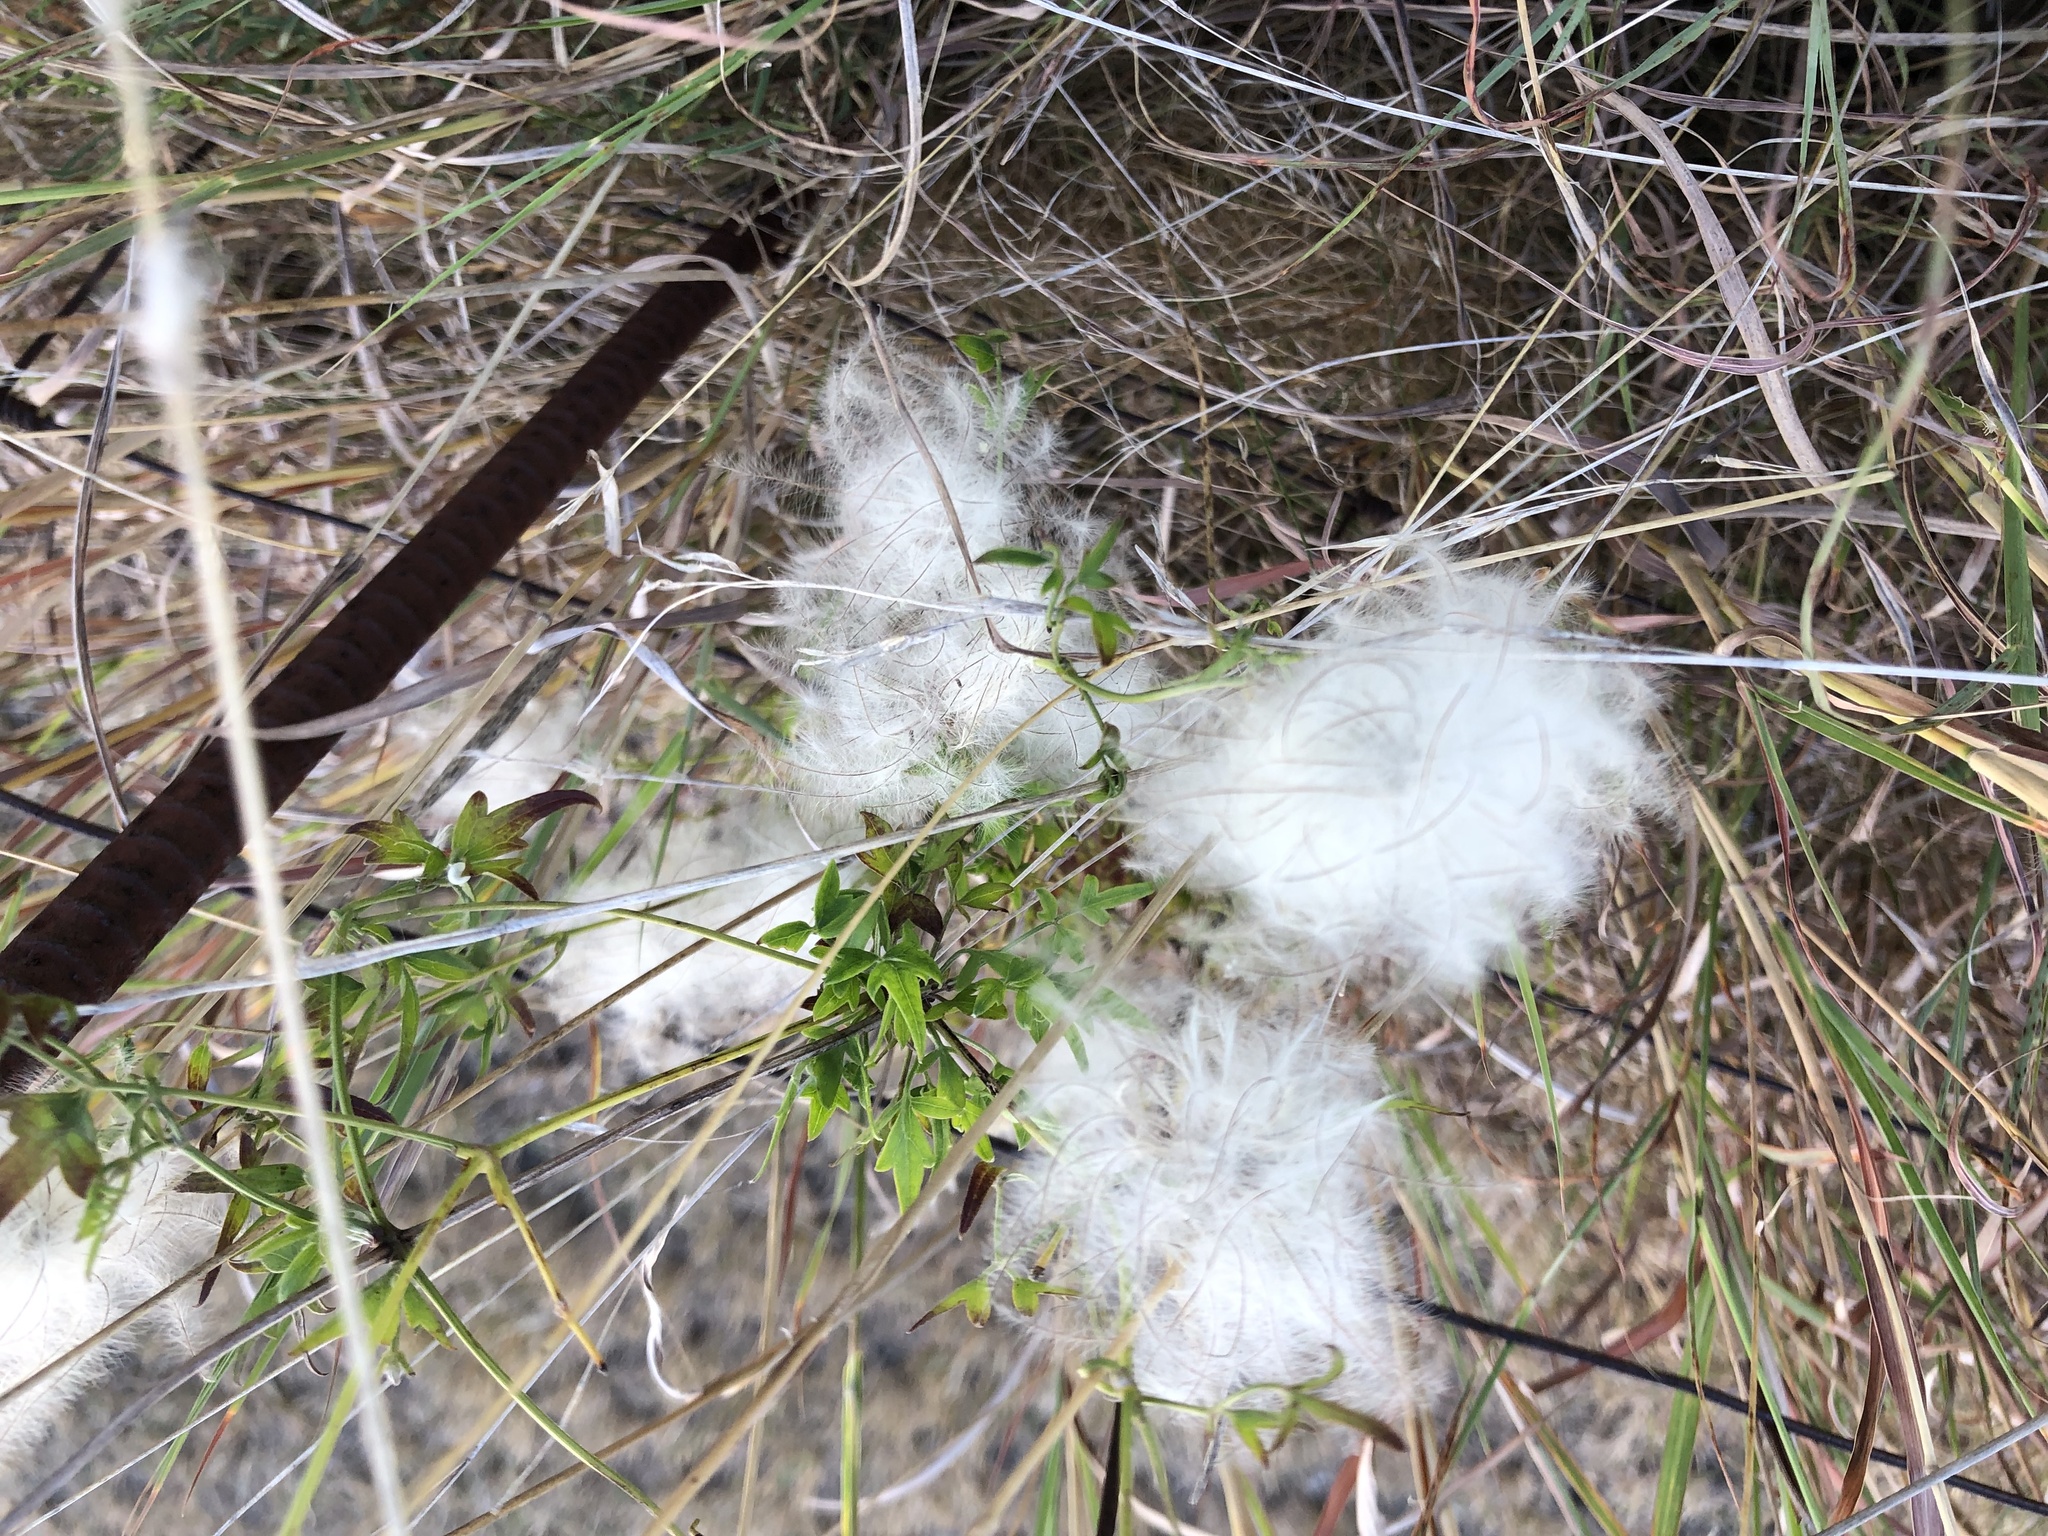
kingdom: Plantae
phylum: Tracheophyta
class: Magnoliopsida
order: Ranunculales
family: Ranunculaceae
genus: Clematis
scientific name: Clematis drummondii
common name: Texas virgin's bower
